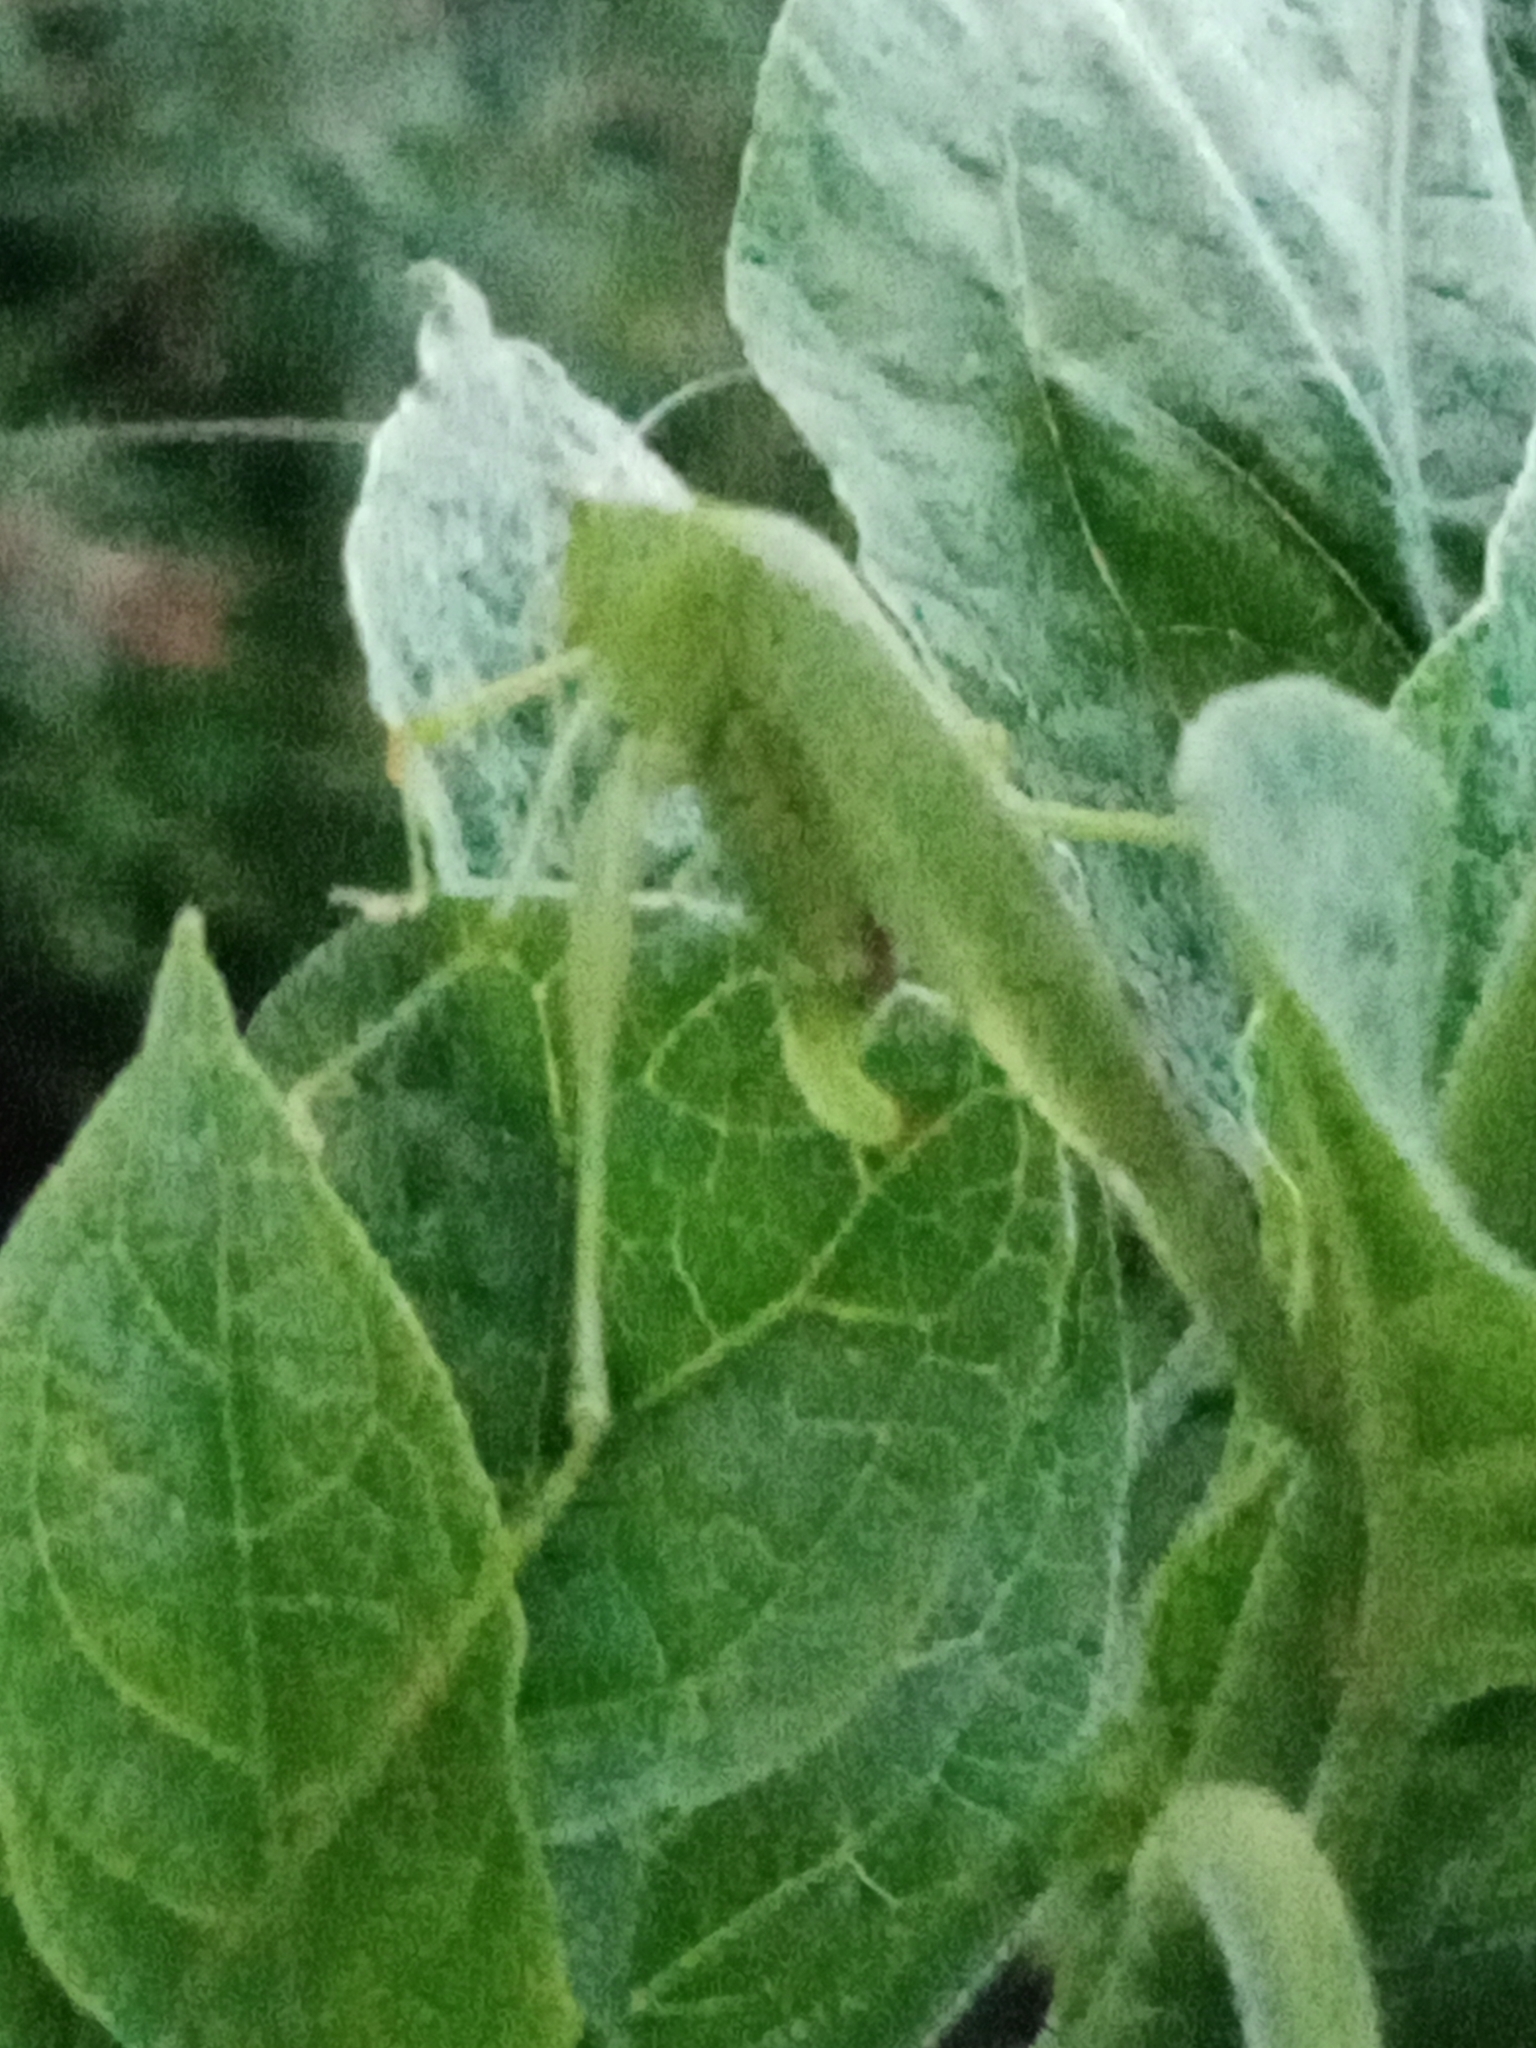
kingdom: Animalia
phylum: Arthropoda
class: Insecta
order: Orthoptera
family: Tettigoniidae
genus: Phaneroptera
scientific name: Phaneroptera nana
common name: Southern sickle bush-cricket
